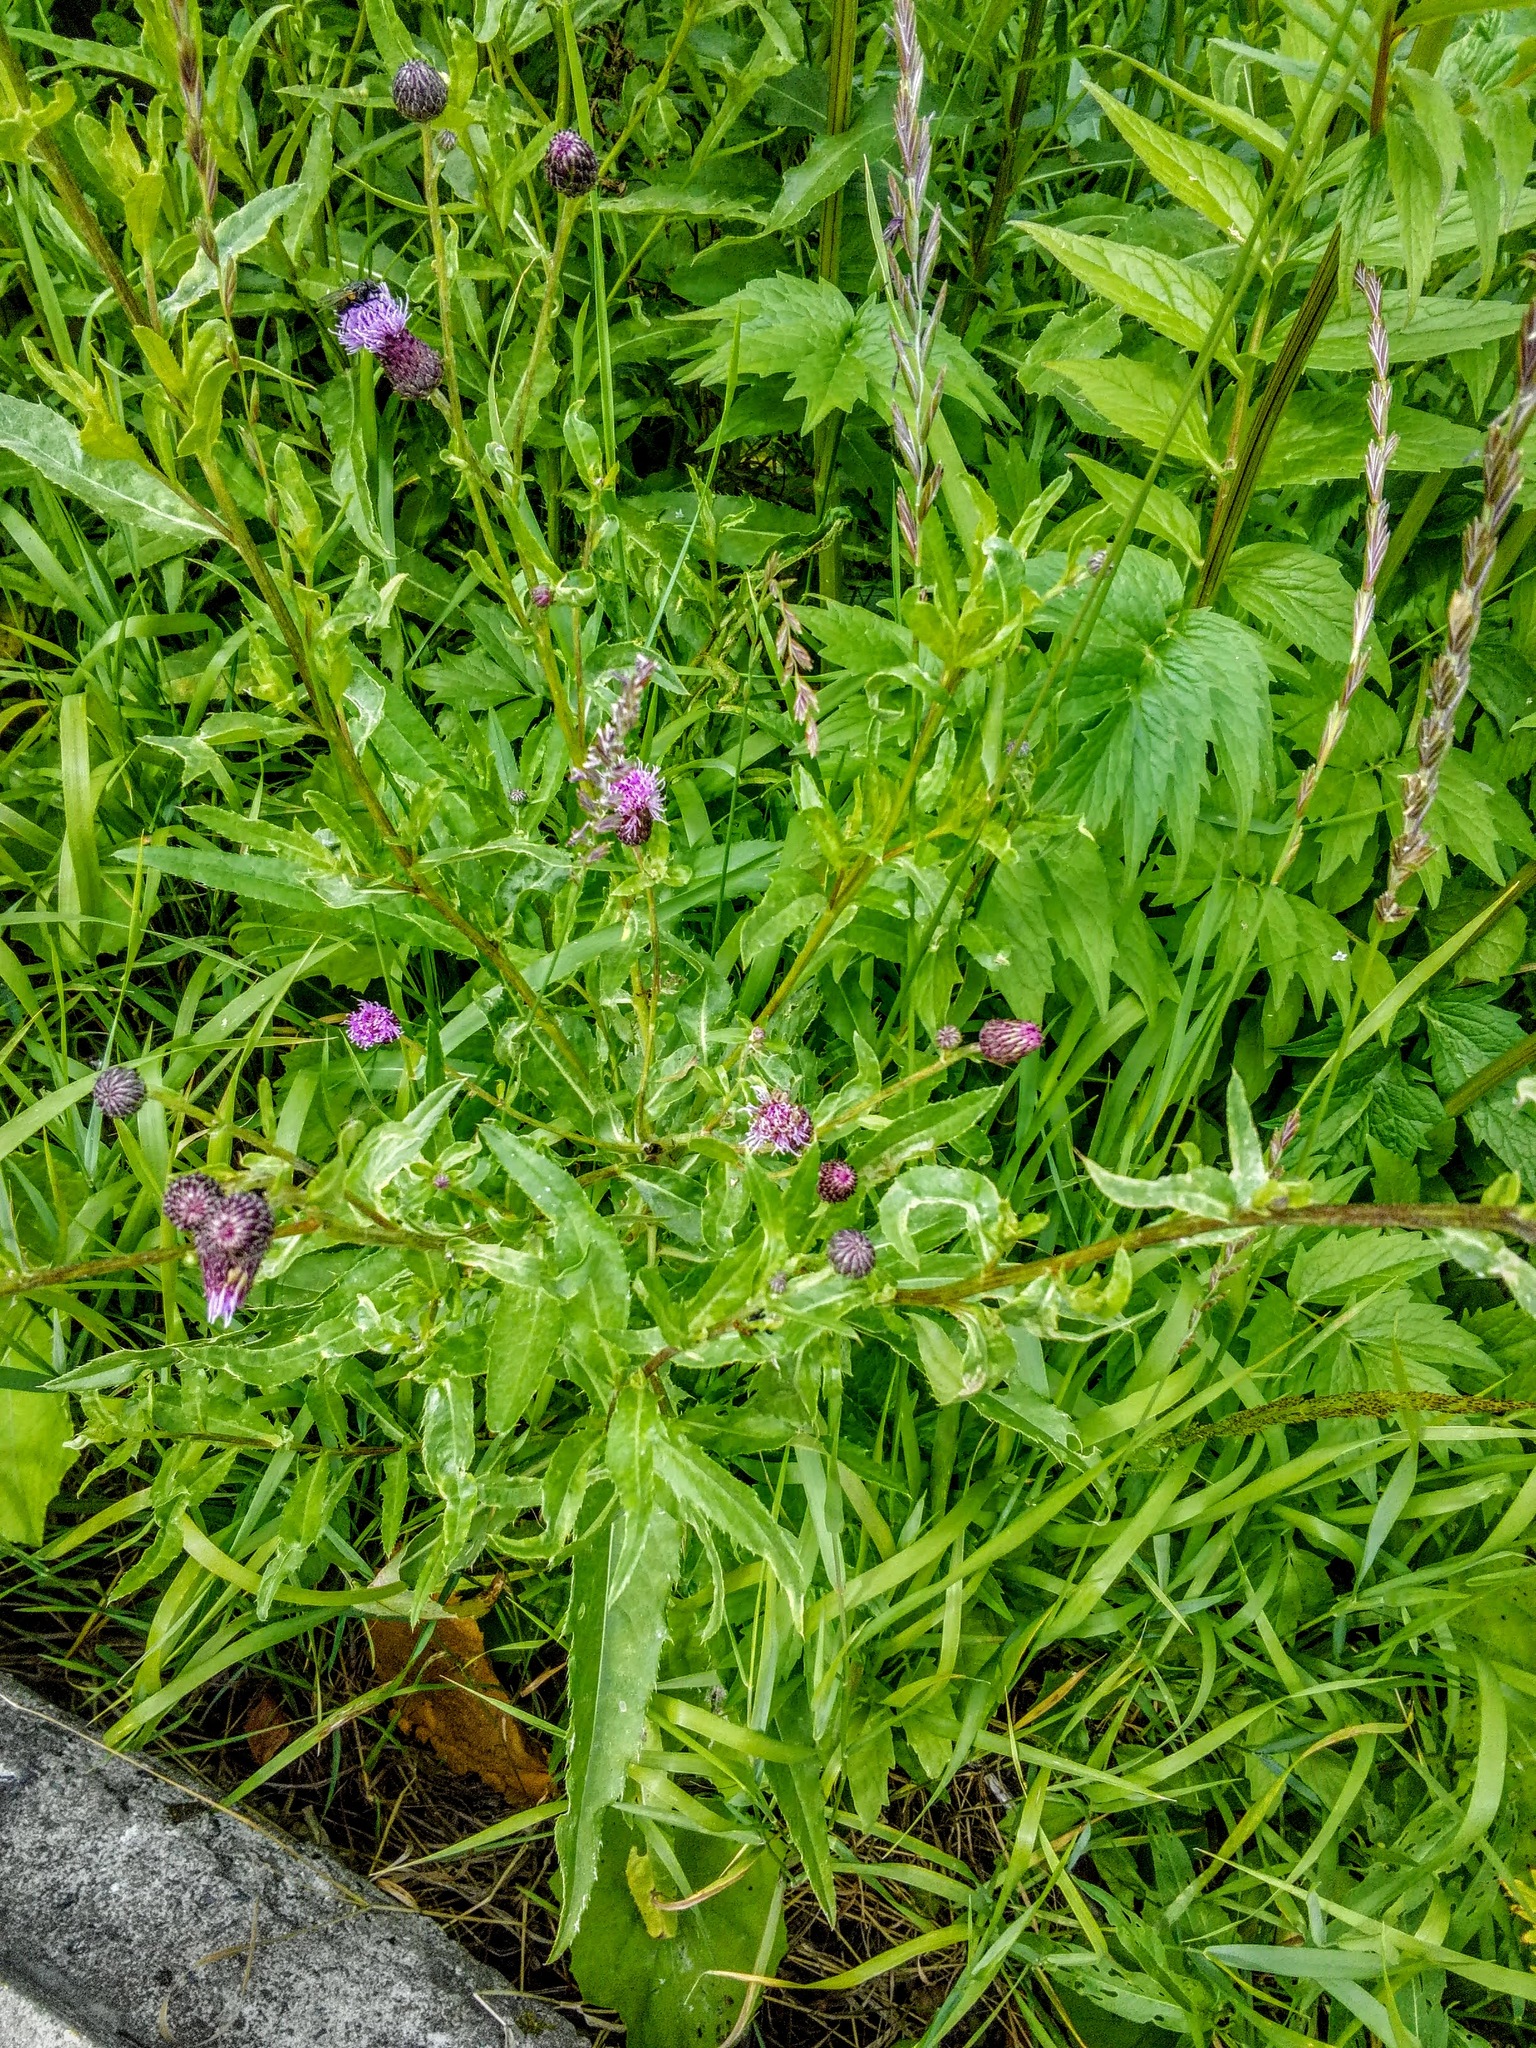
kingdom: Plantae
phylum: Tracheophyta
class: Magnoliopsida
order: Asterales
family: Asteraceae
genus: Cirsium
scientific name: Cirsium arvense
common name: Creeping thistle
